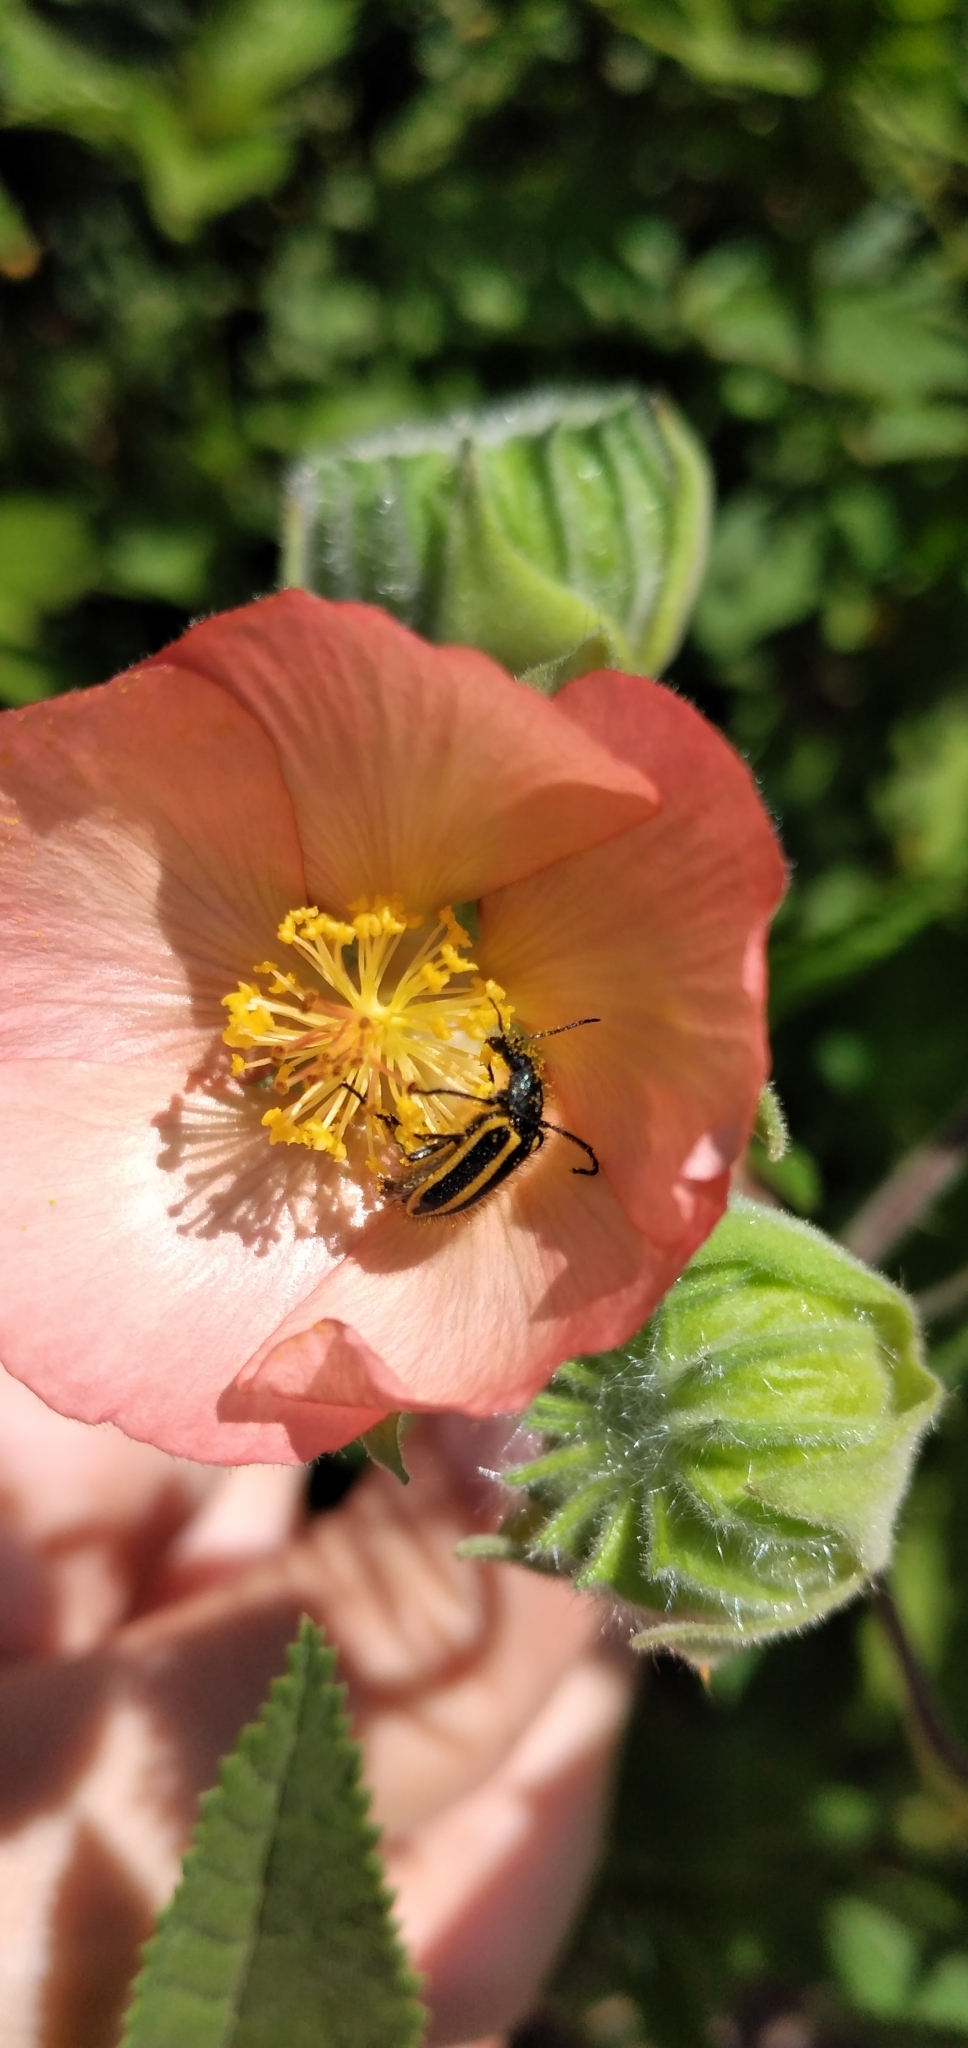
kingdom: Animalia
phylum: Arthropoda
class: Insecta
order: Coleoptera
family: Melyridae
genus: Astylus
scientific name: Astylus vittaticollis
